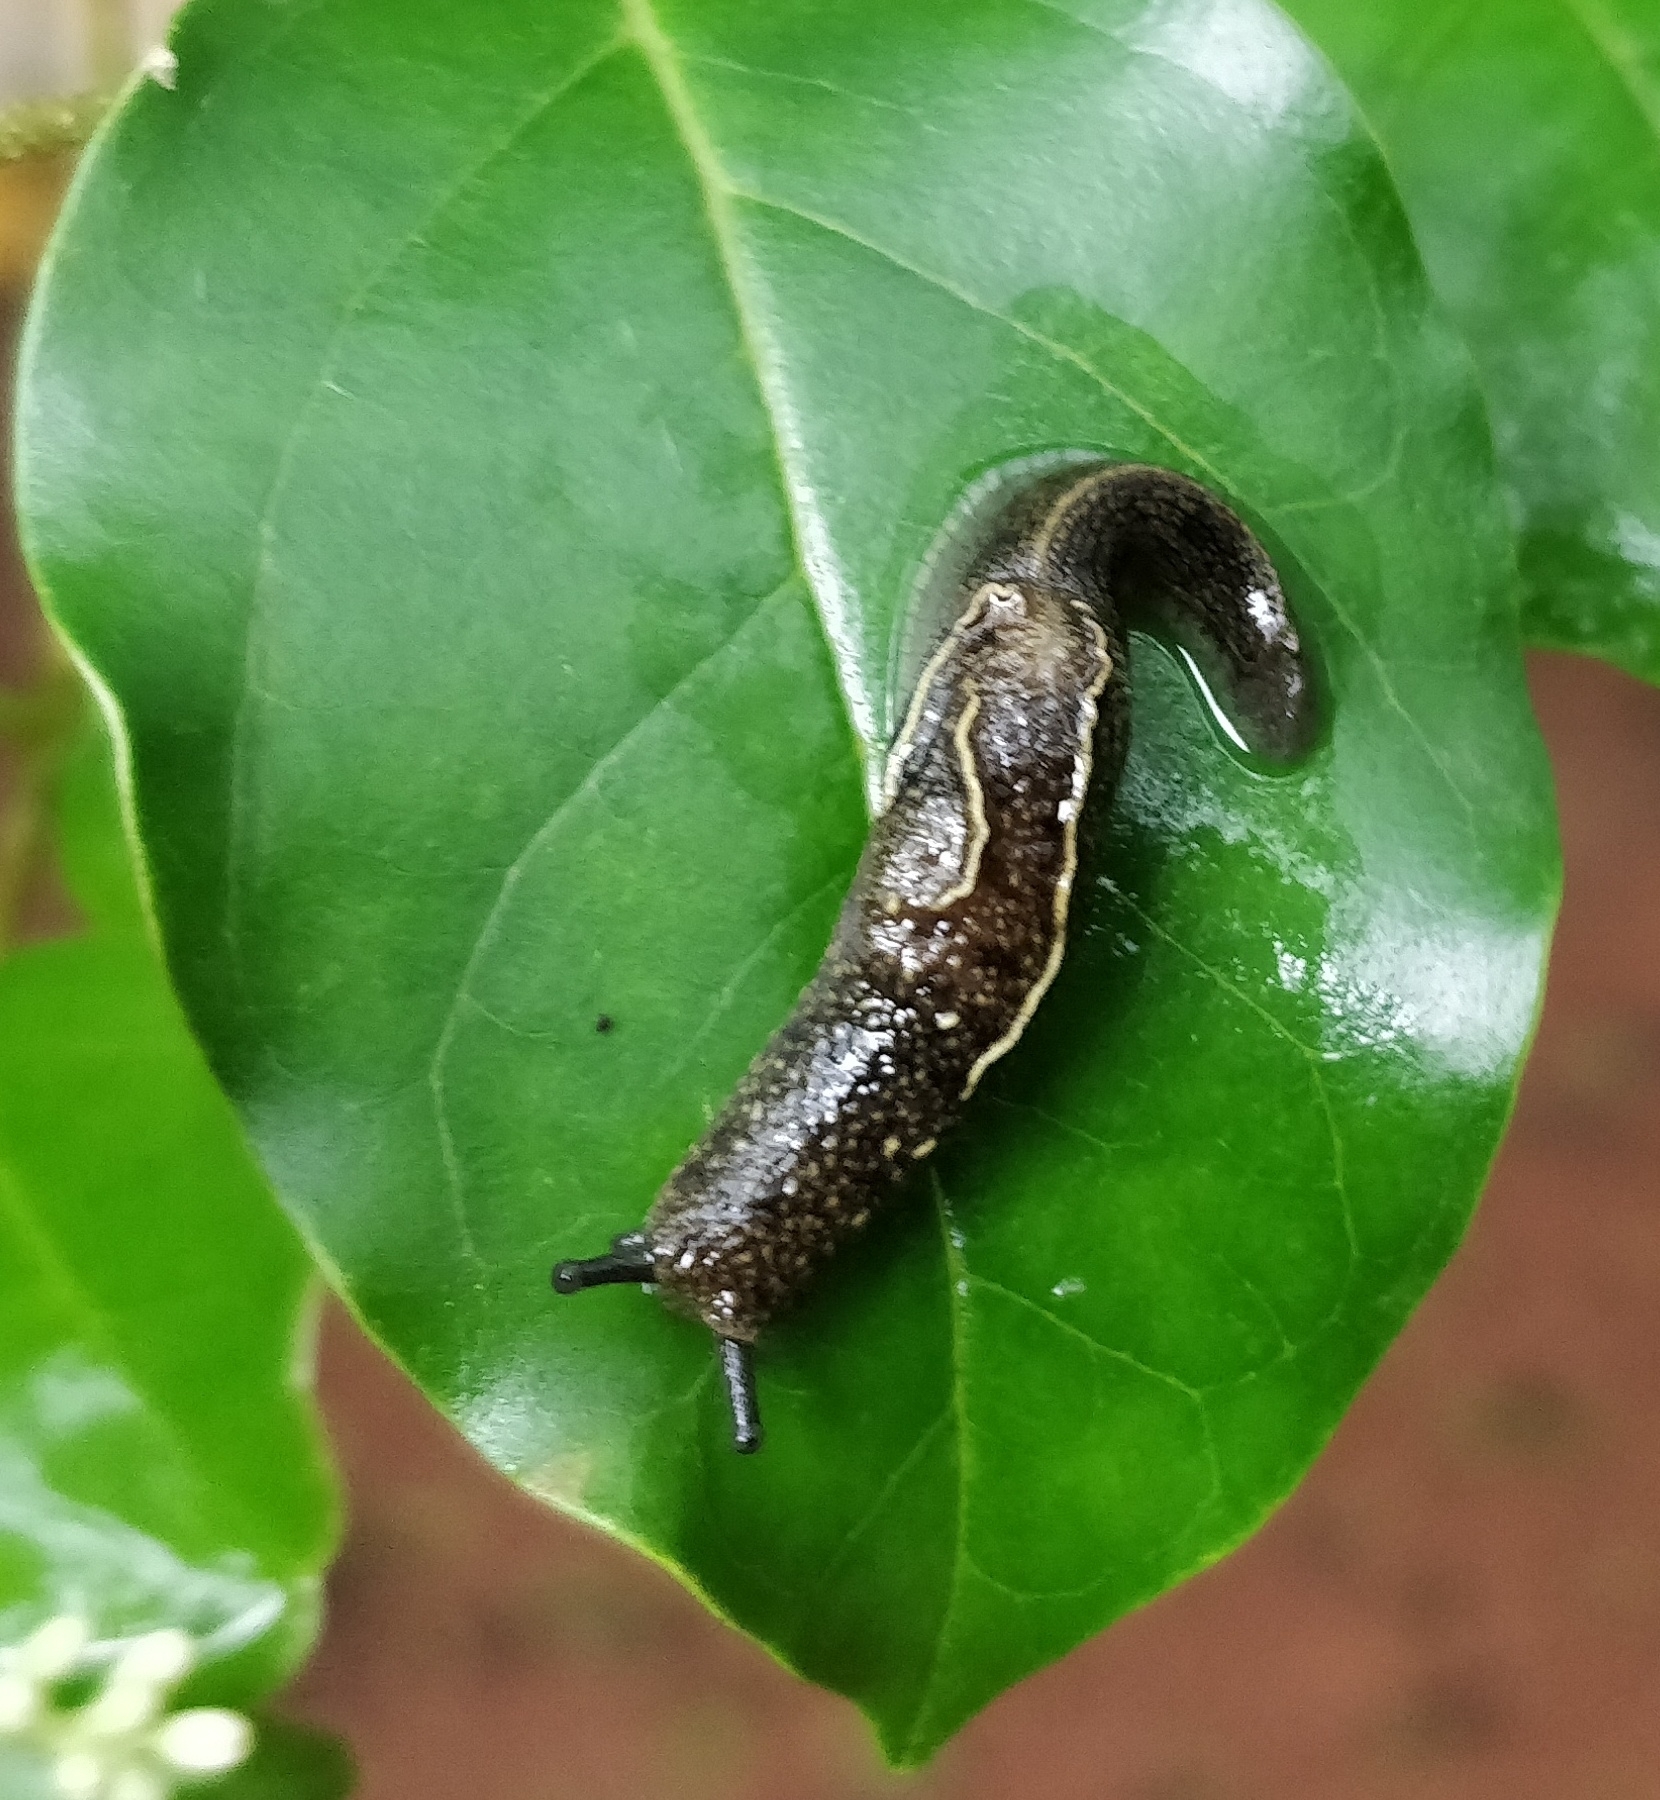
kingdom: Animalia
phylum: Mollusca
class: Gastropoda
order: Stylommatophora
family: Ariophantidae
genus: Mariaella
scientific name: Mariaella dussumieri
